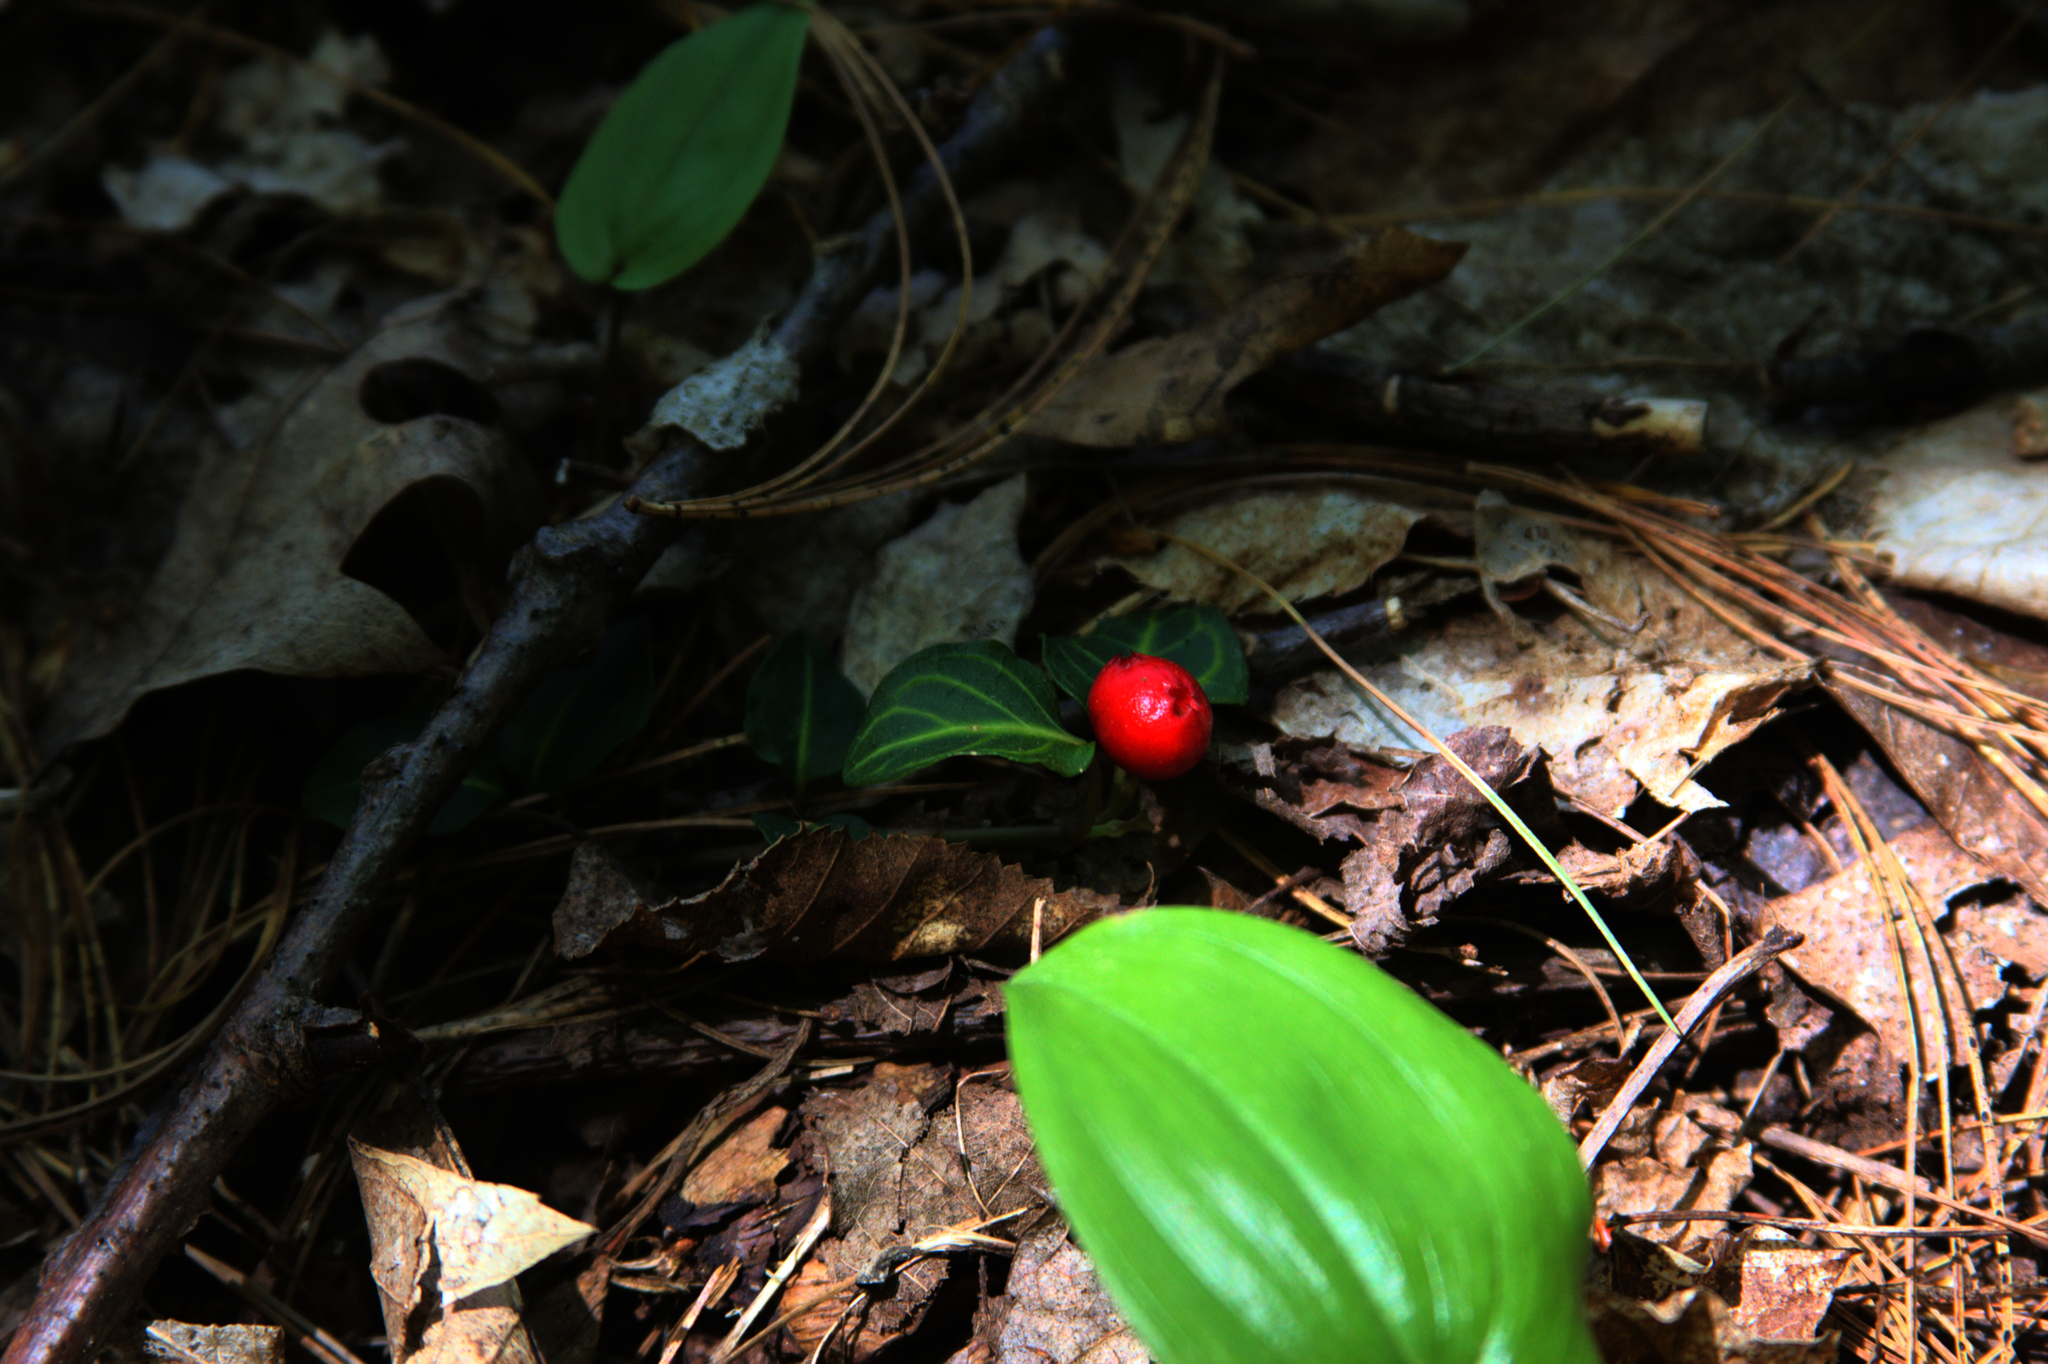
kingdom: Plantae
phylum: Tracheophyta
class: Magnoliopsida
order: Gentianales
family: Rubiaceae
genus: Mitchella
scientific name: Mitchella repens
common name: Partridge-berry
